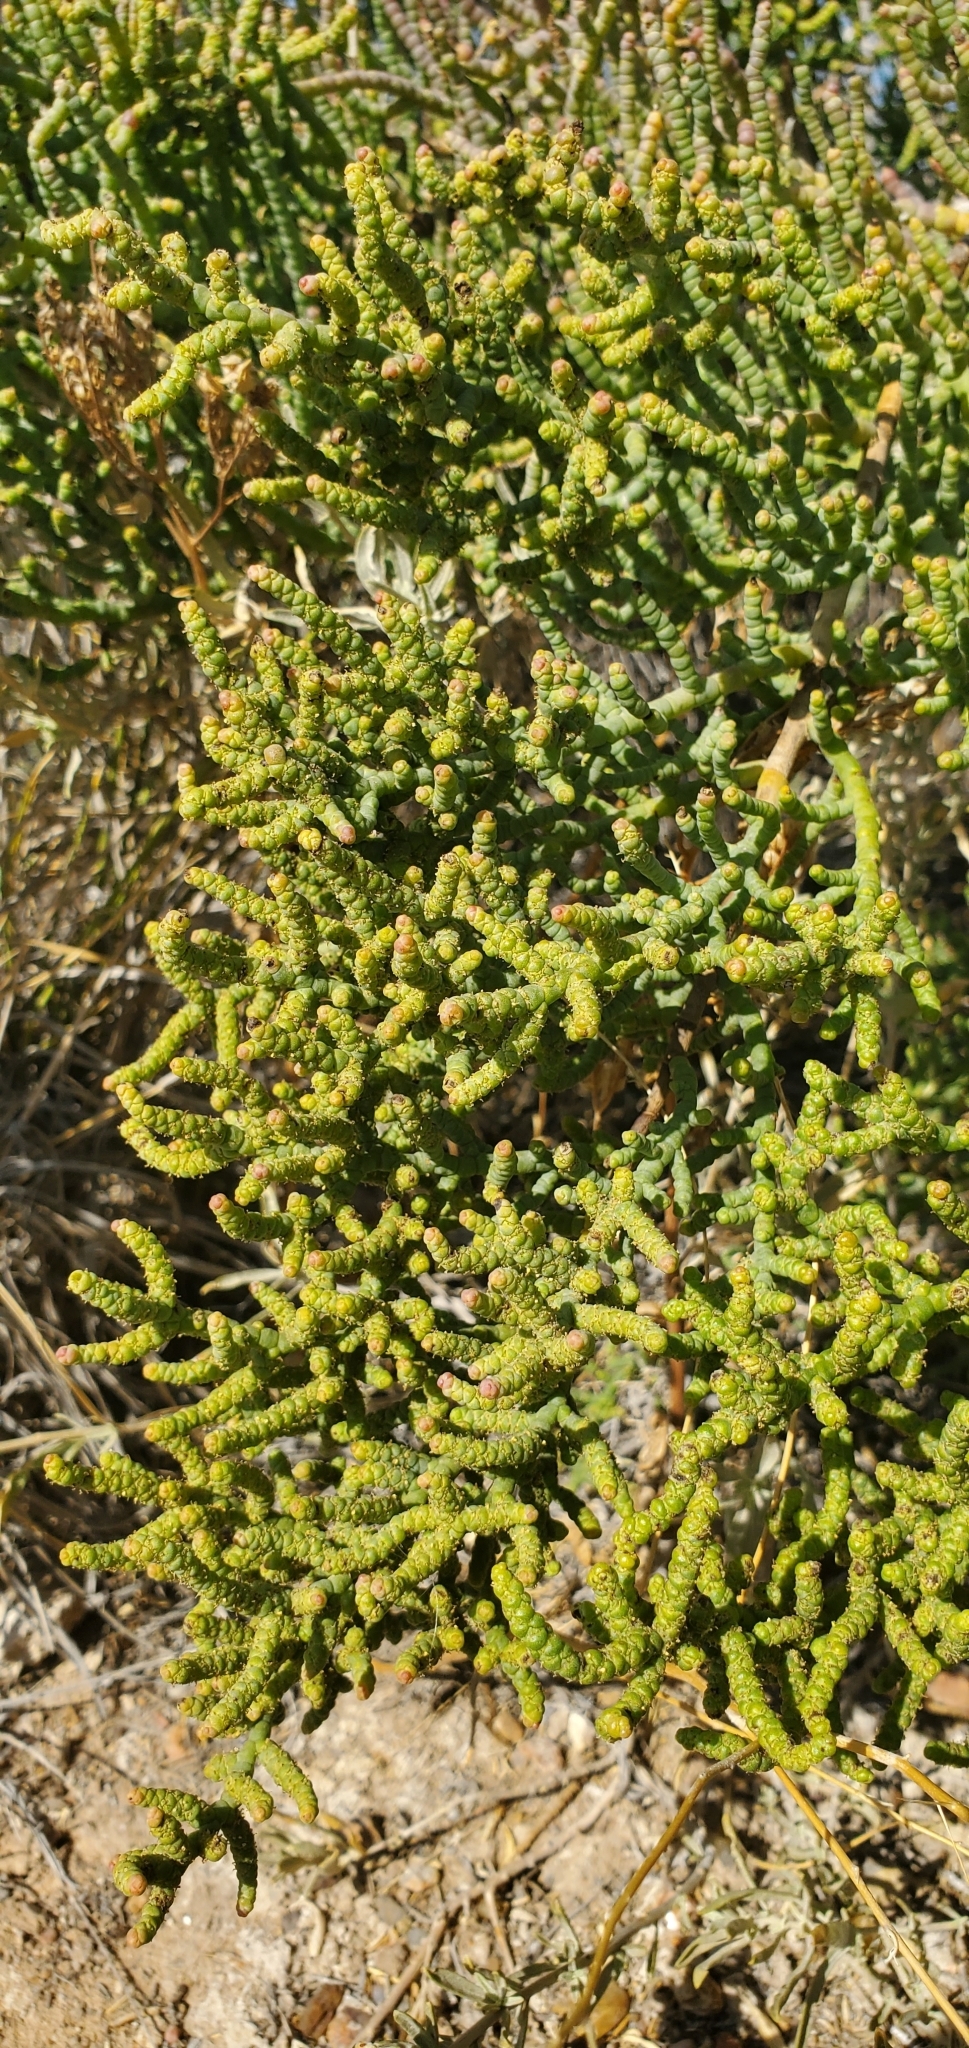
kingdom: Plantae
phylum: Tracheophyta
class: Magnoliopsida
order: Caryophyllales
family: Amaranthaceae
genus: Allenrolfea
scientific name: Allenrolfea occidentalis
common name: Iodine-bush
